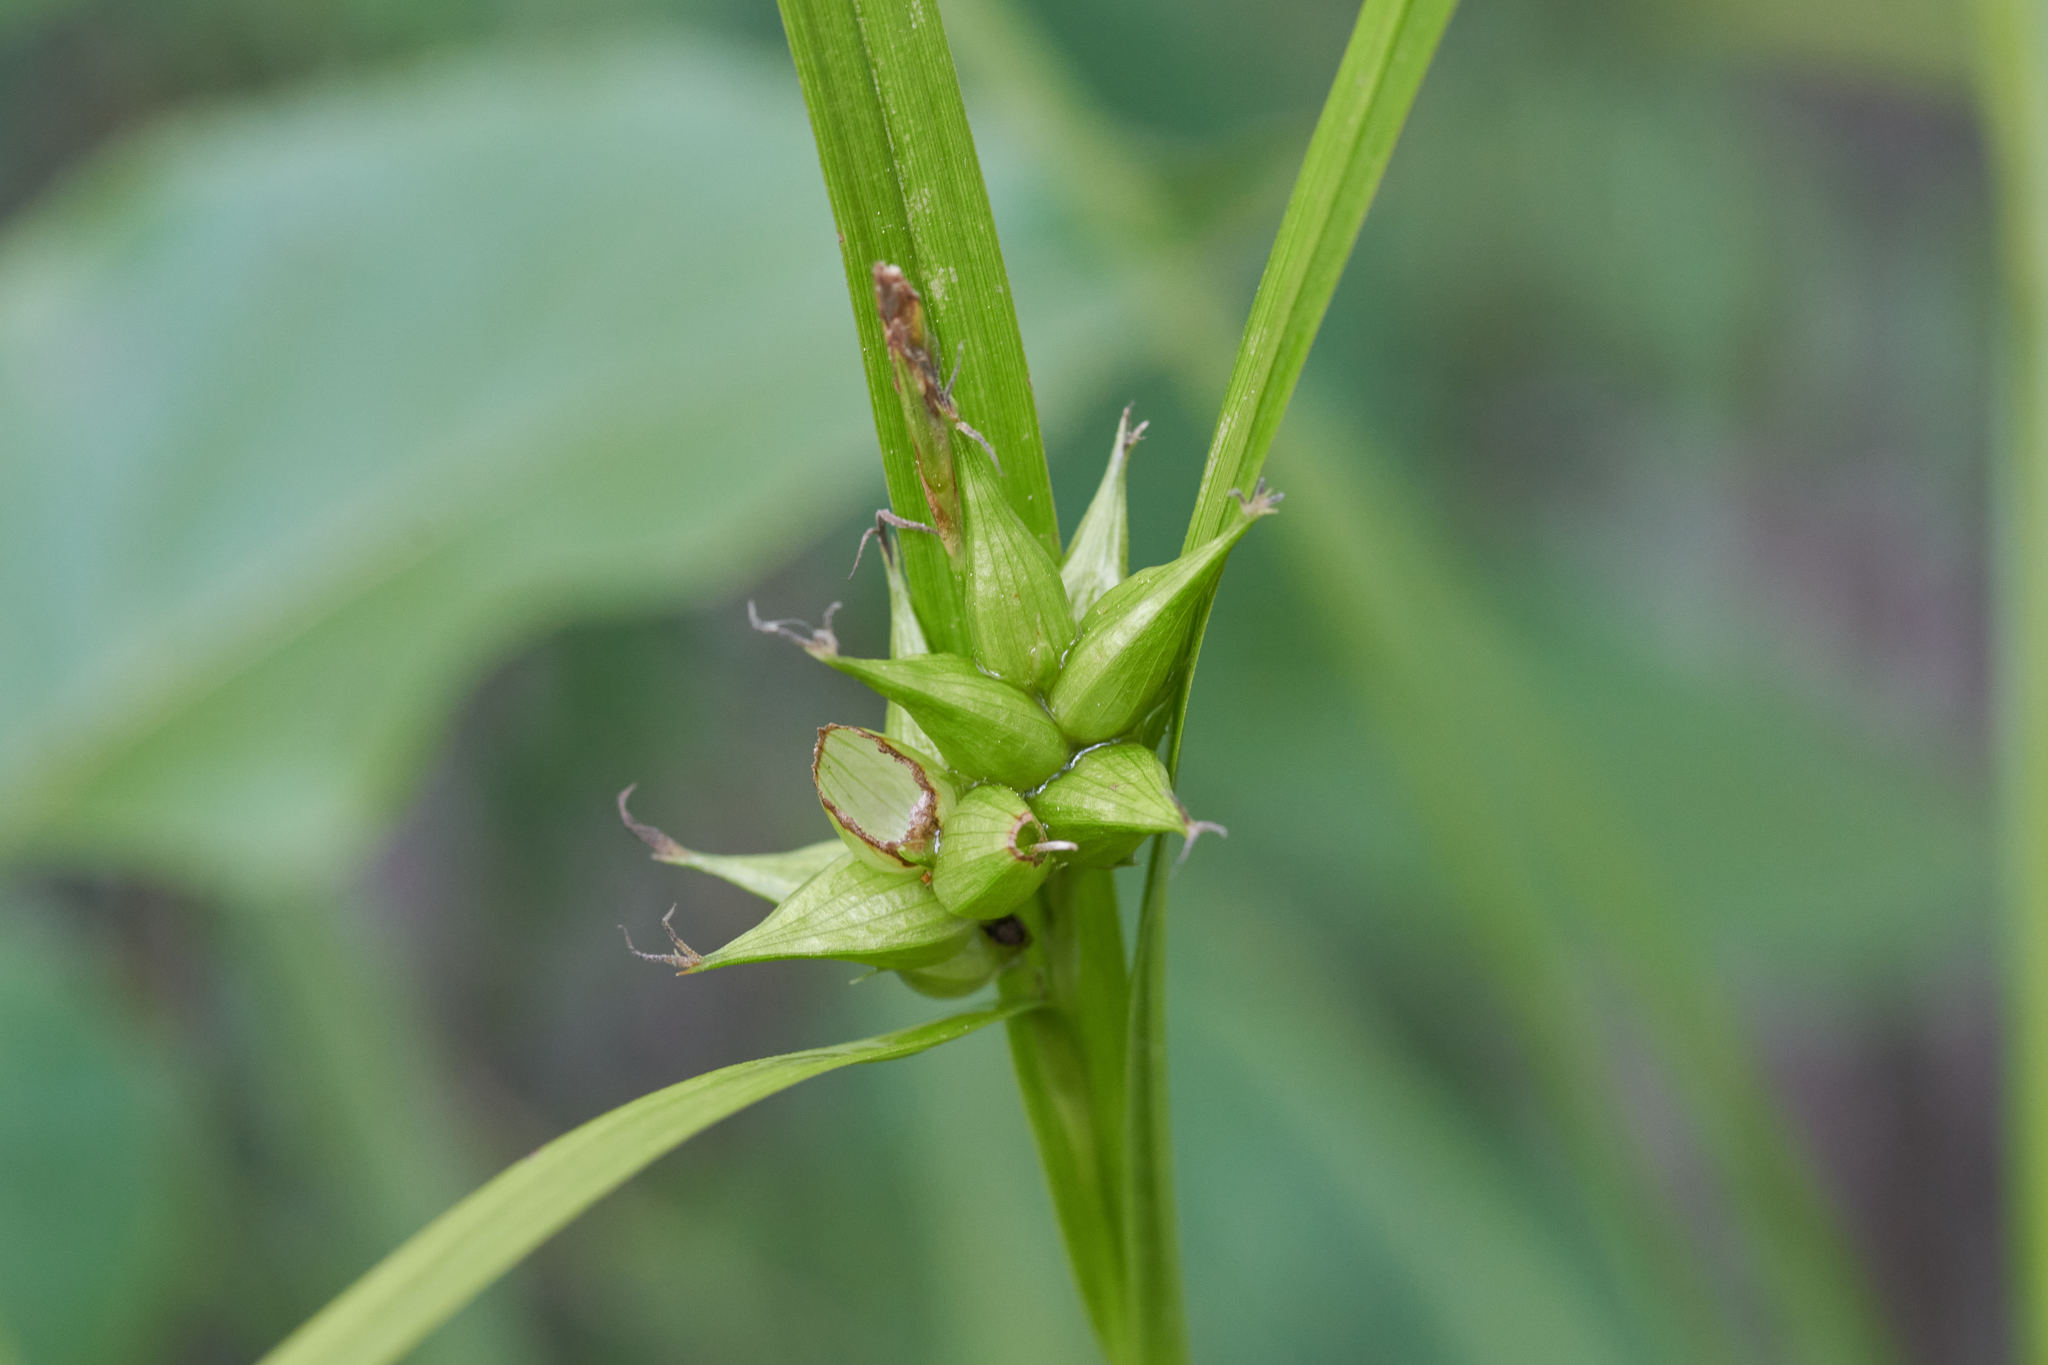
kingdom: Plantae
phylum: Tracheophyta
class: Liliopsida
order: Poales
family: Cyperaceae
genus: Carex
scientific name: Carex intumescens
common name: Greater bladder sedge
